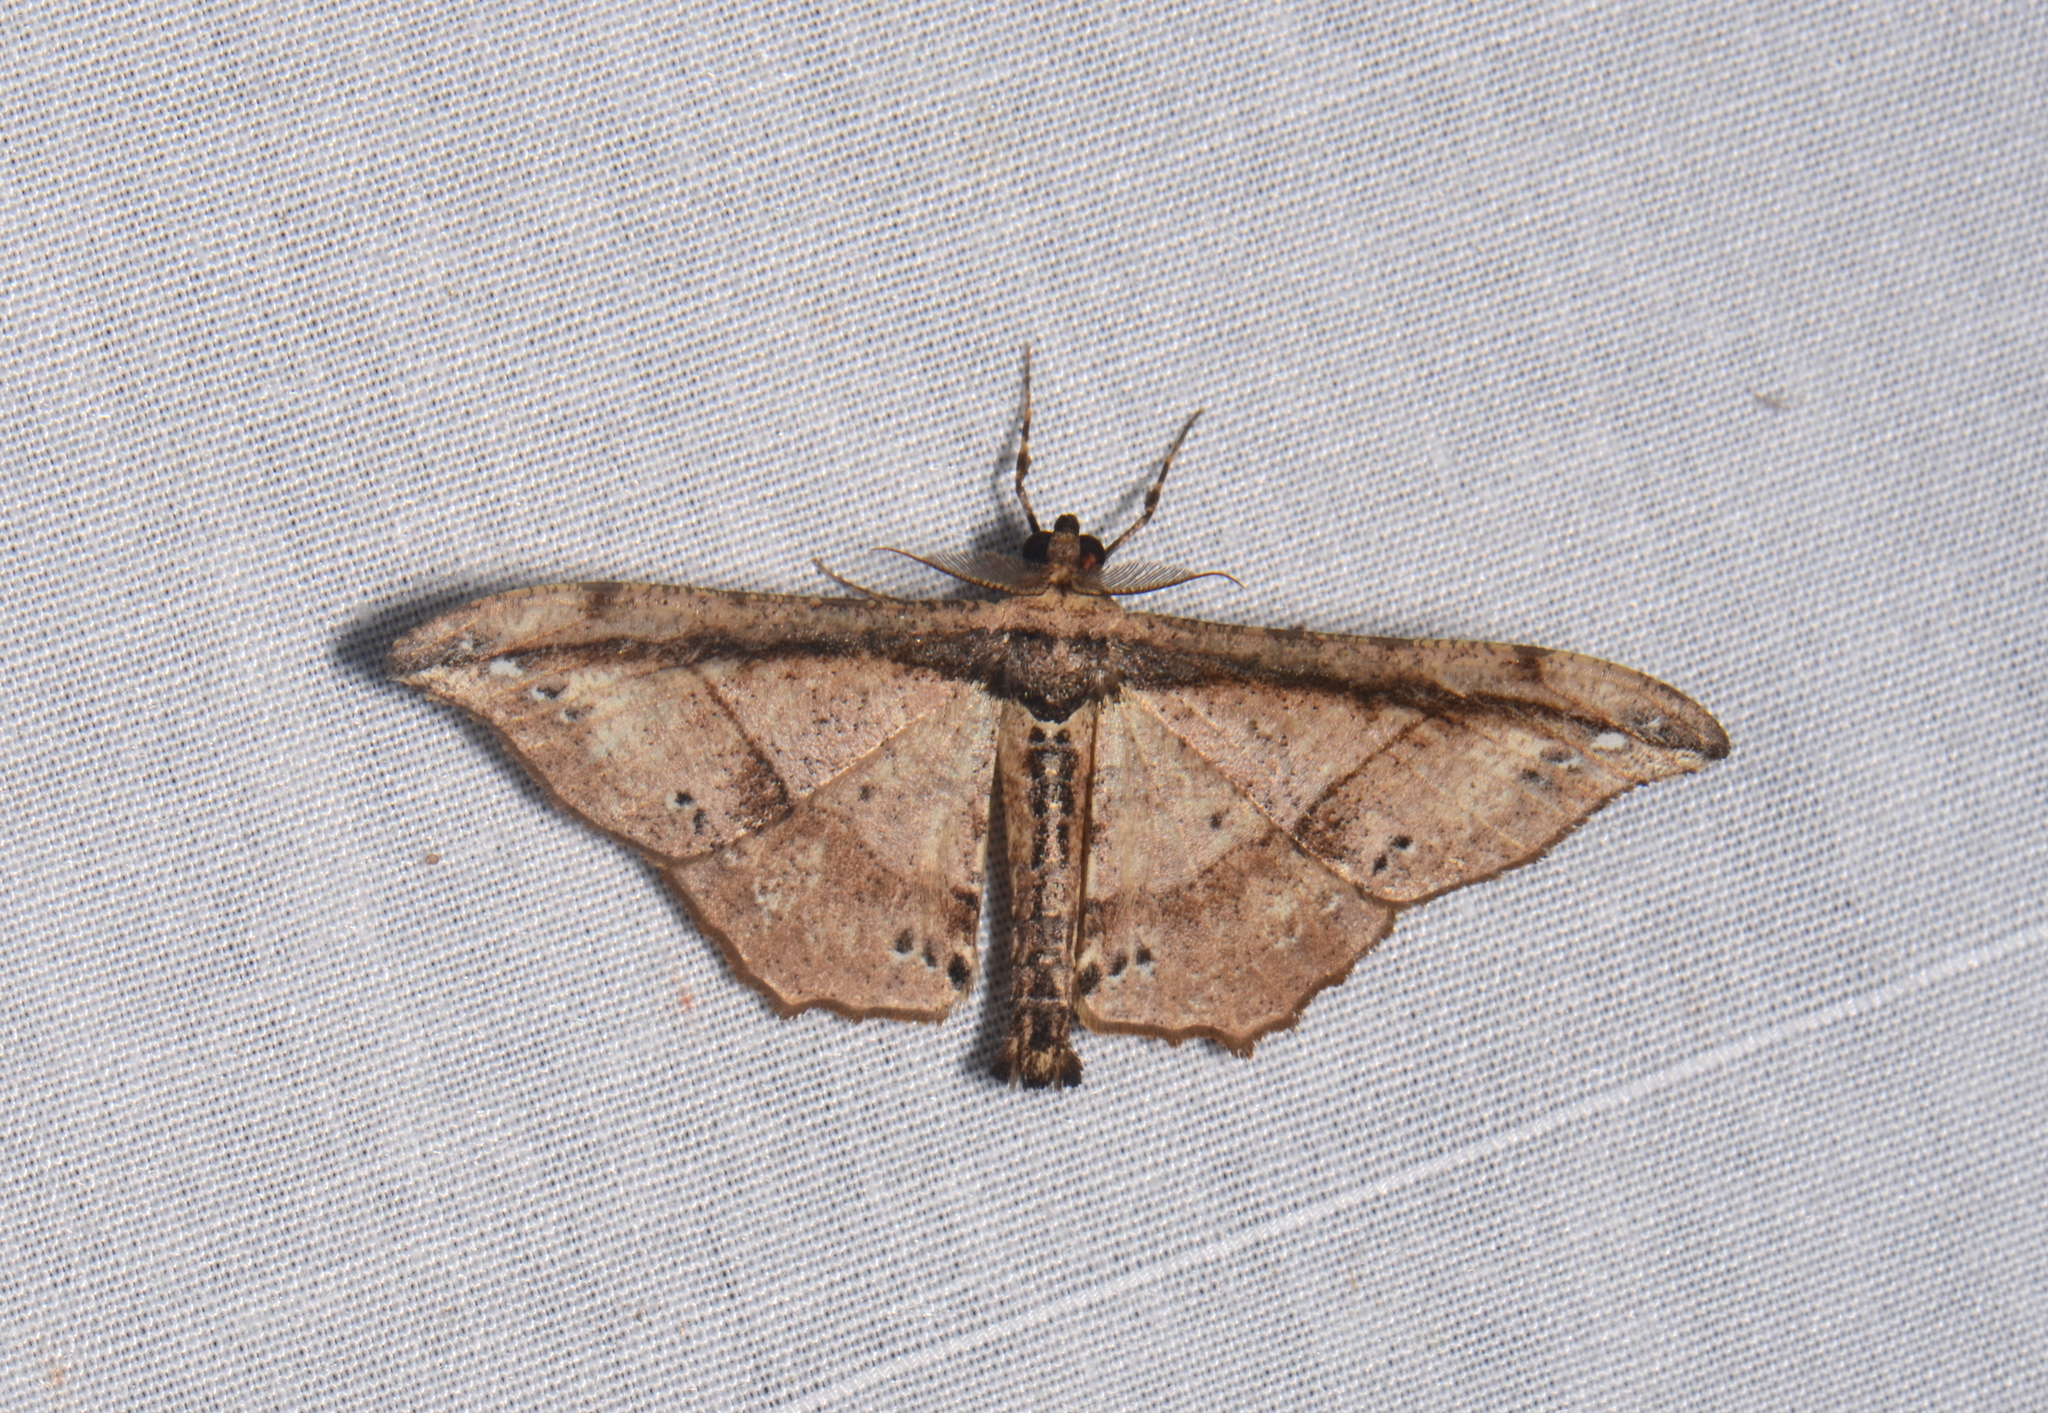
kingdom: Animalia
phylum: Arthropoda
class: Insecta
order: Lepidoptera
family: Geometridae
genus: Hyposidra
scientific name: Hyposidra infixaria
